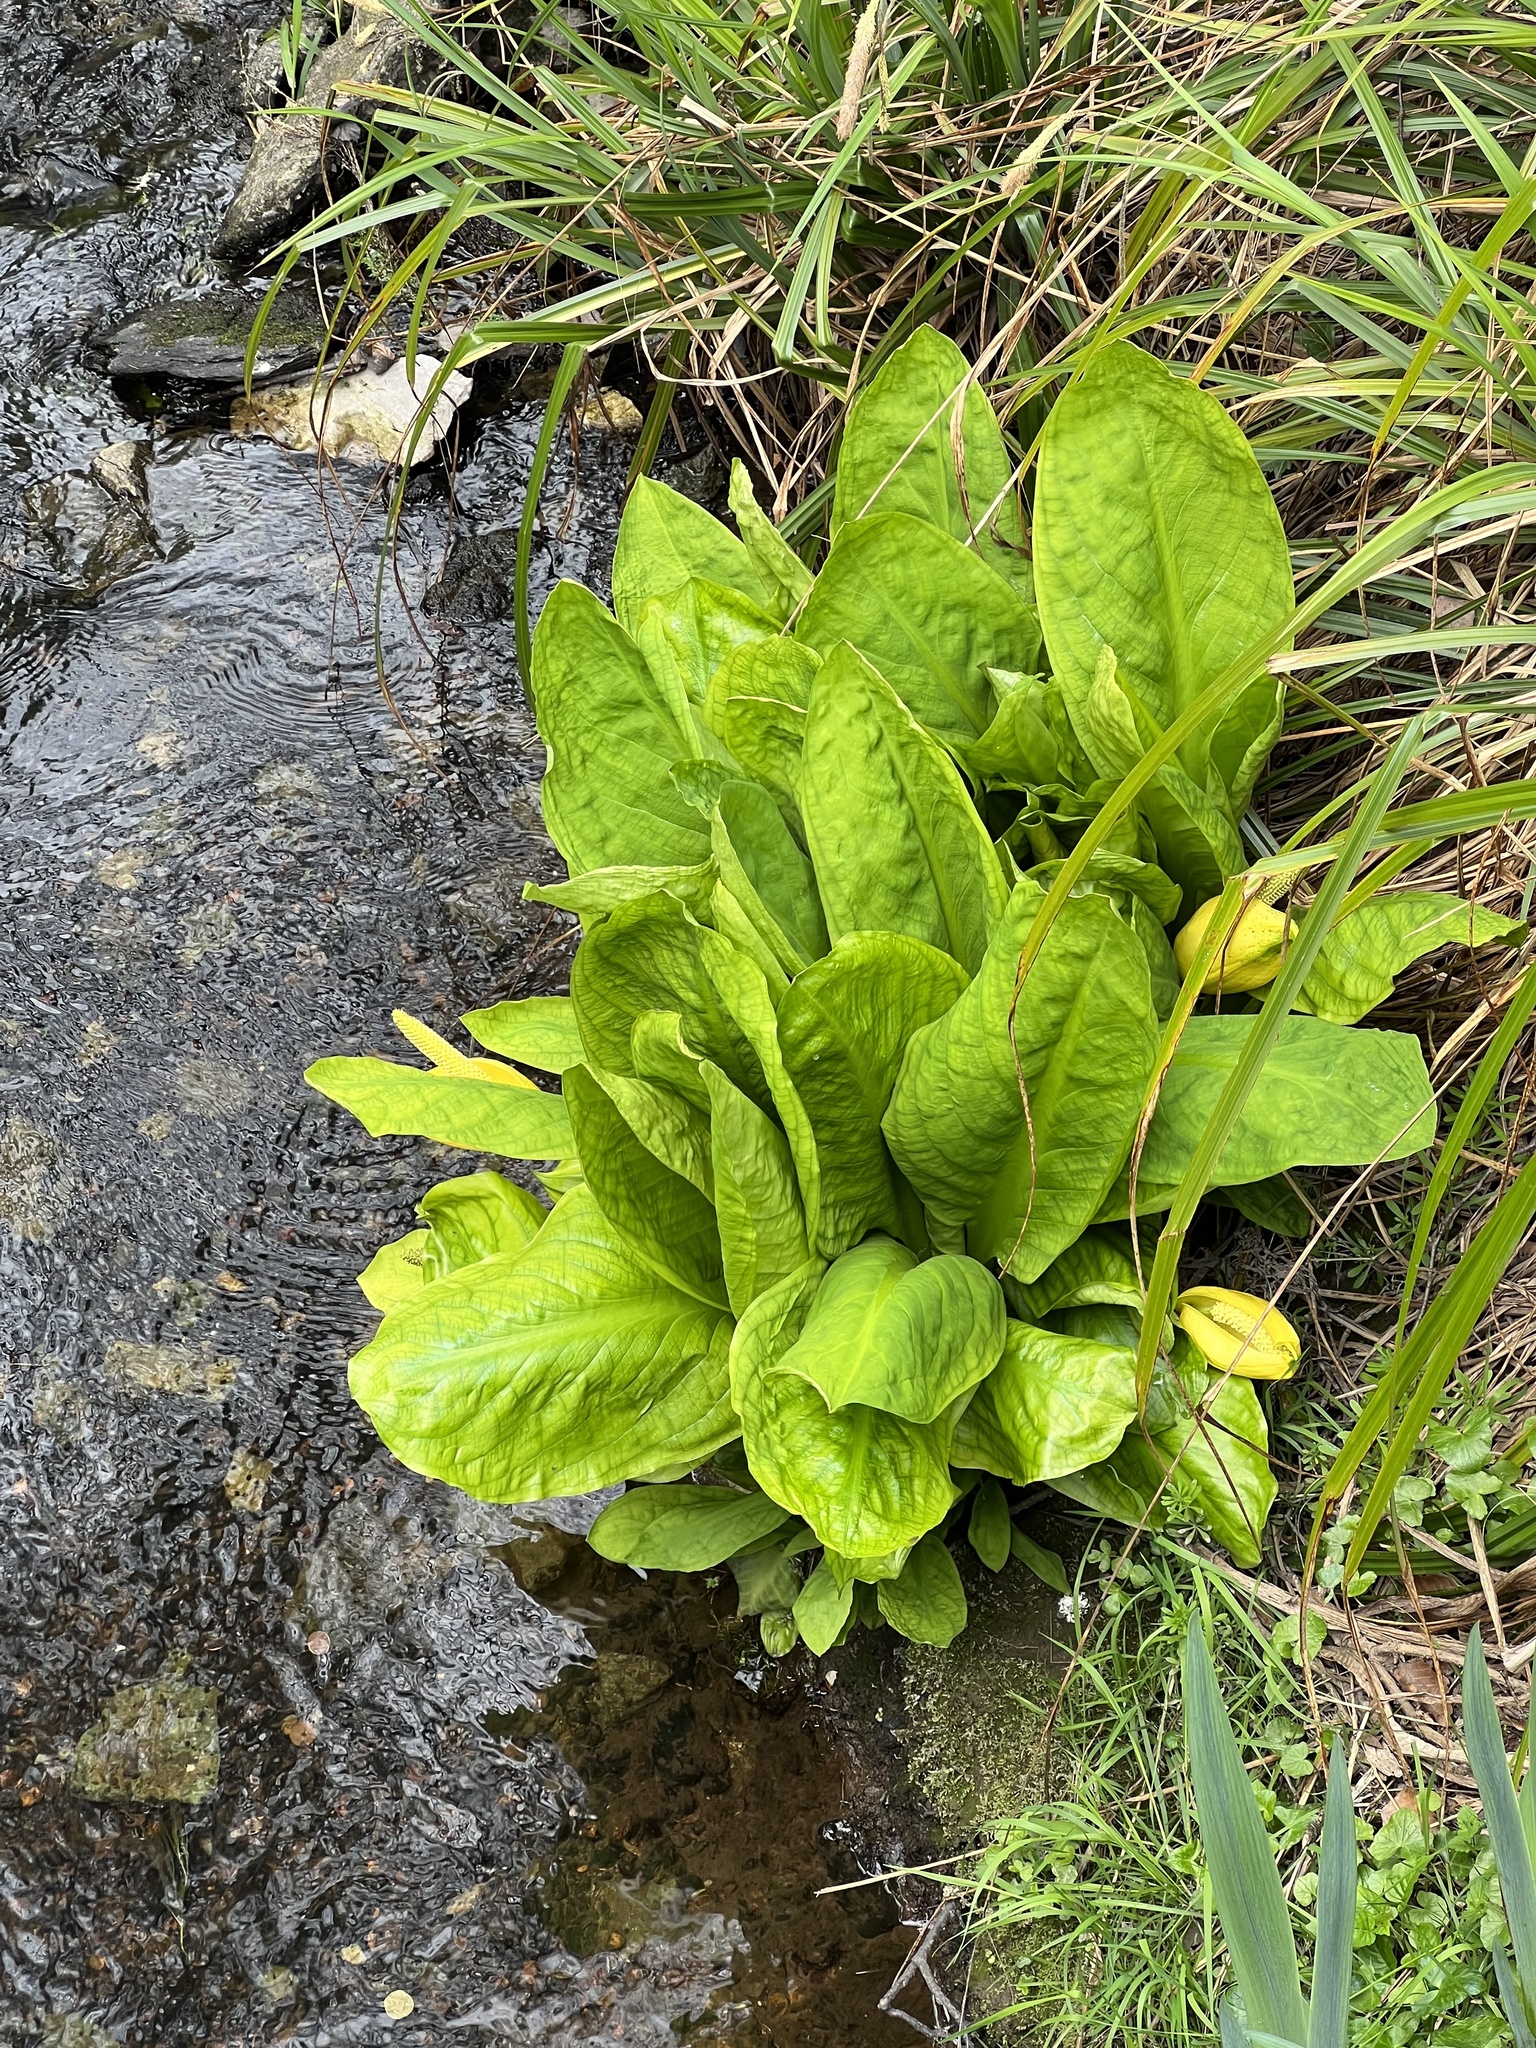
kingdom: Plantae
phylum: Tracheophyta
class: Liliopsida
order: Alismatales
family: Araceae
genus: Lysichiton
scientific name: Lysichiton americanus
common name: American skunk cabbage
